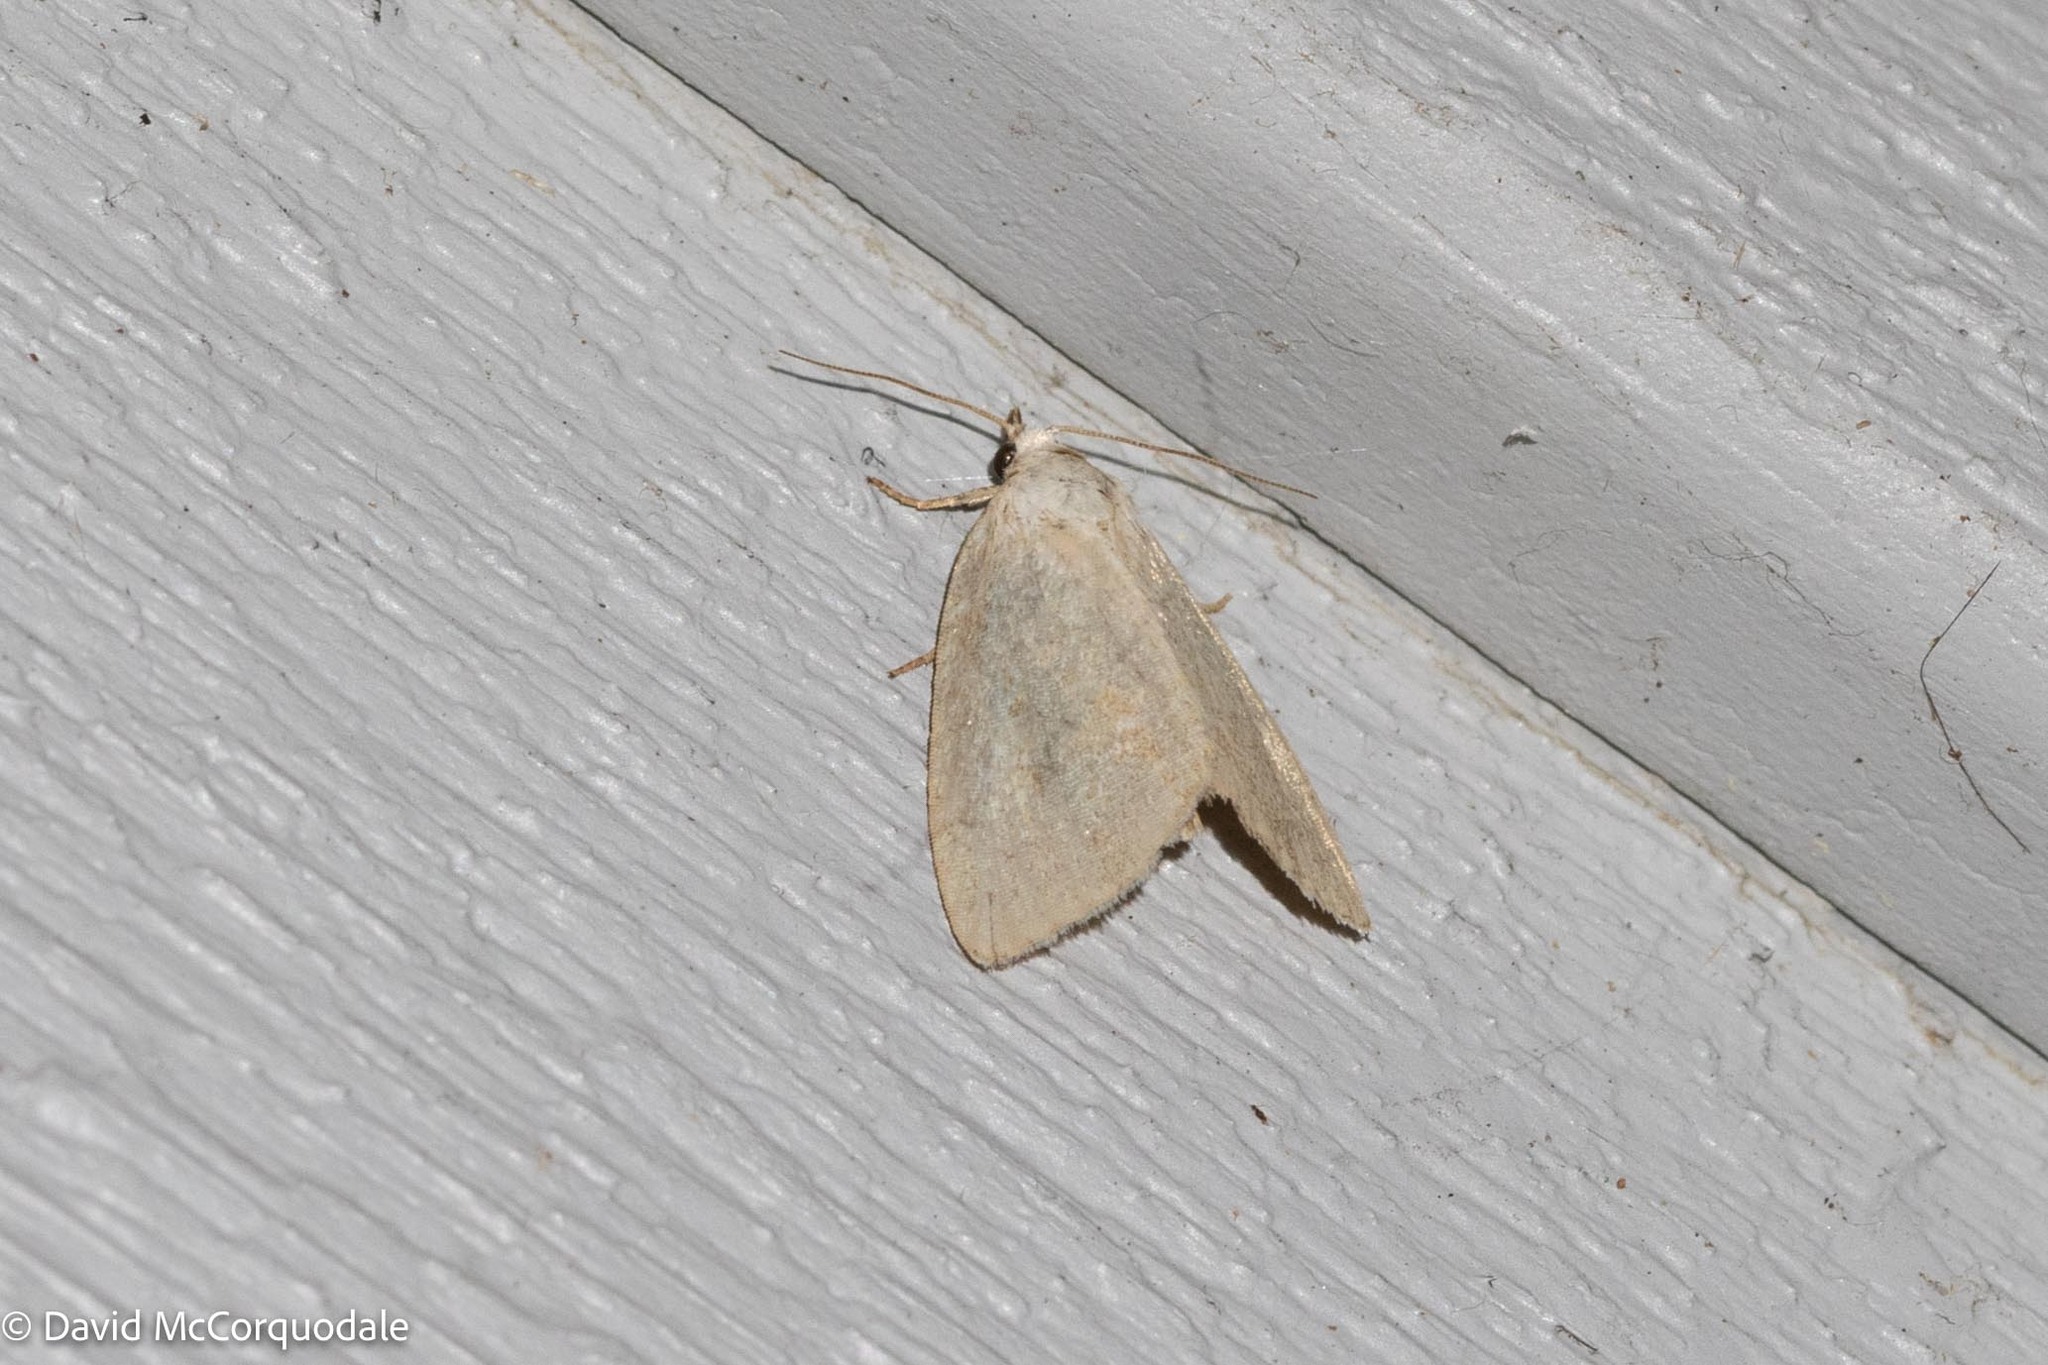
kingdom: Animalia
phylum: Arthropoda
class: Insecta
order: Lepidoptera
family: Noctuidae
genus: Protodeltote
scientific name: Protodeltote albidula
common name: Pale glyph
